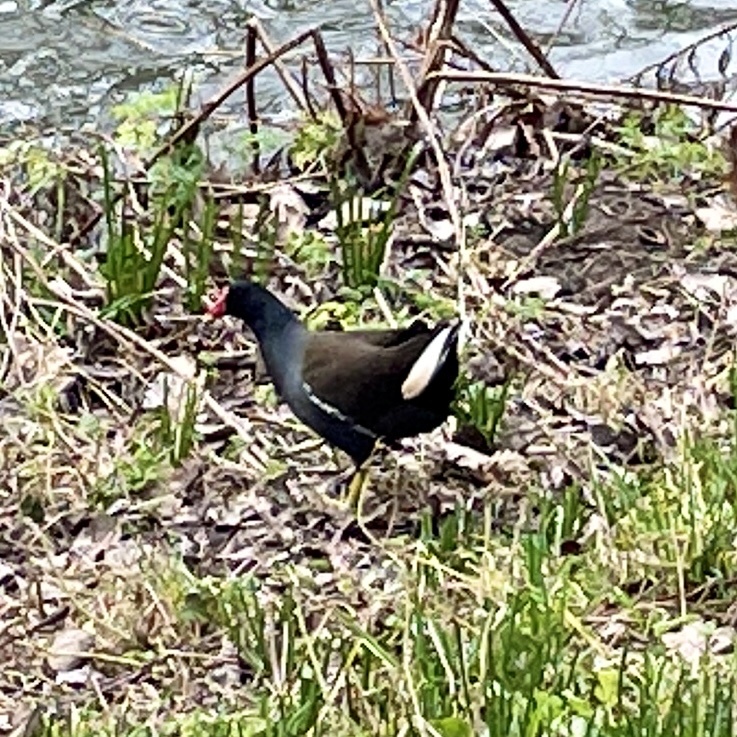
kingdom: Animalia
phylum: Chordata
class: Aves
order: Gruiformes
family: Rallidae
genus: Gallinula
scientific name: Gallinula chloropus
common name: Common moorhen
